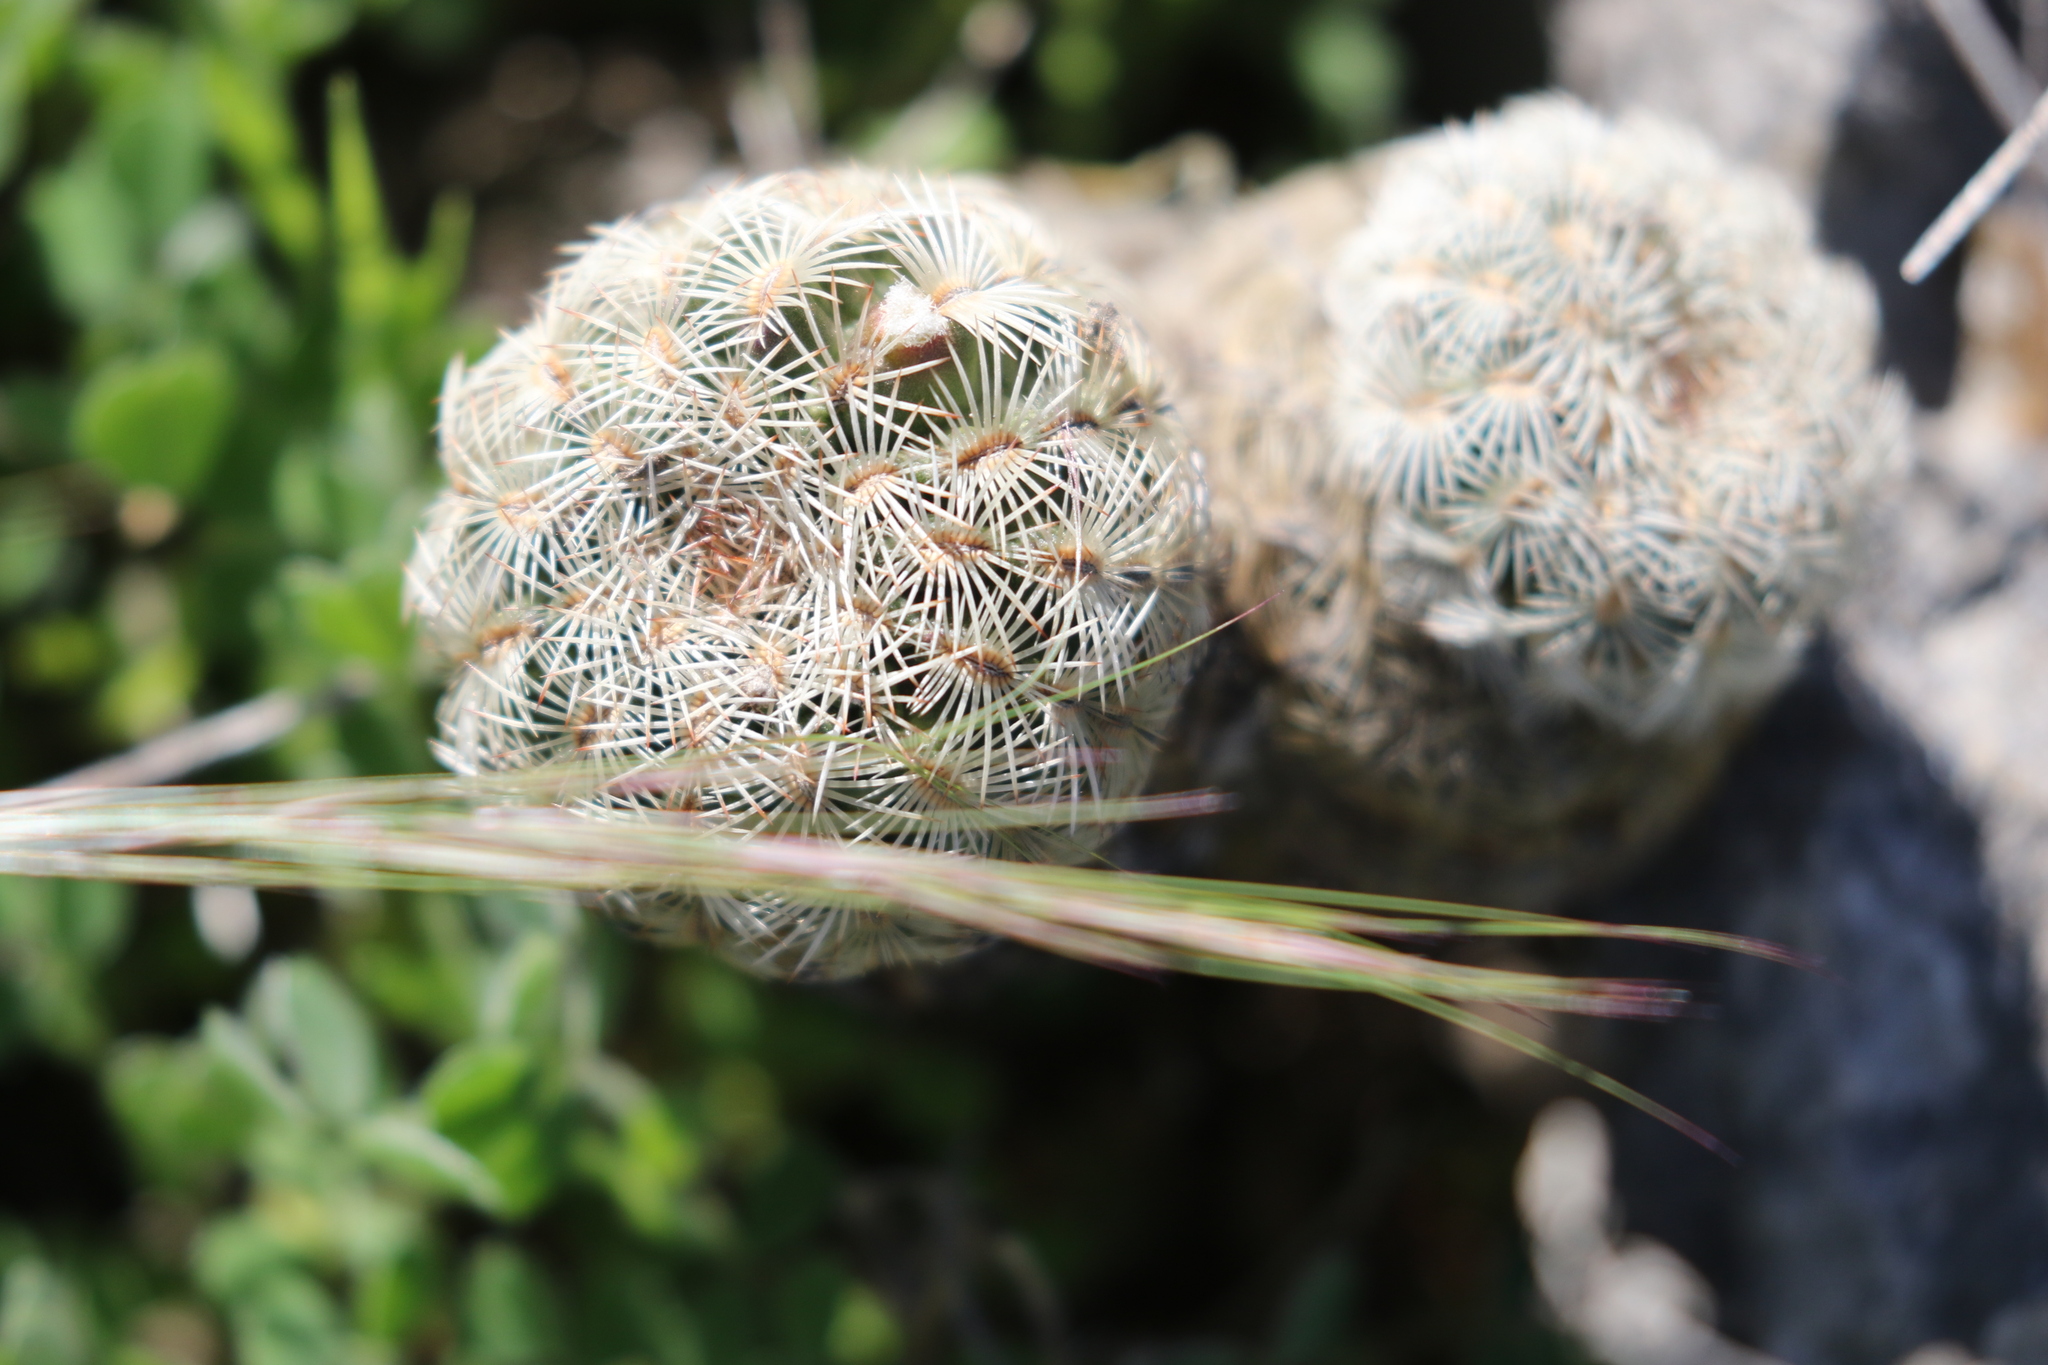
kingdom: Plantae
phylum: Tracheophyta
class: Magnoliopsida
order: Caryophyllales
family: Cactaceae
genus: Echinocereus
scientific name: Echinocereus reichenbachii
